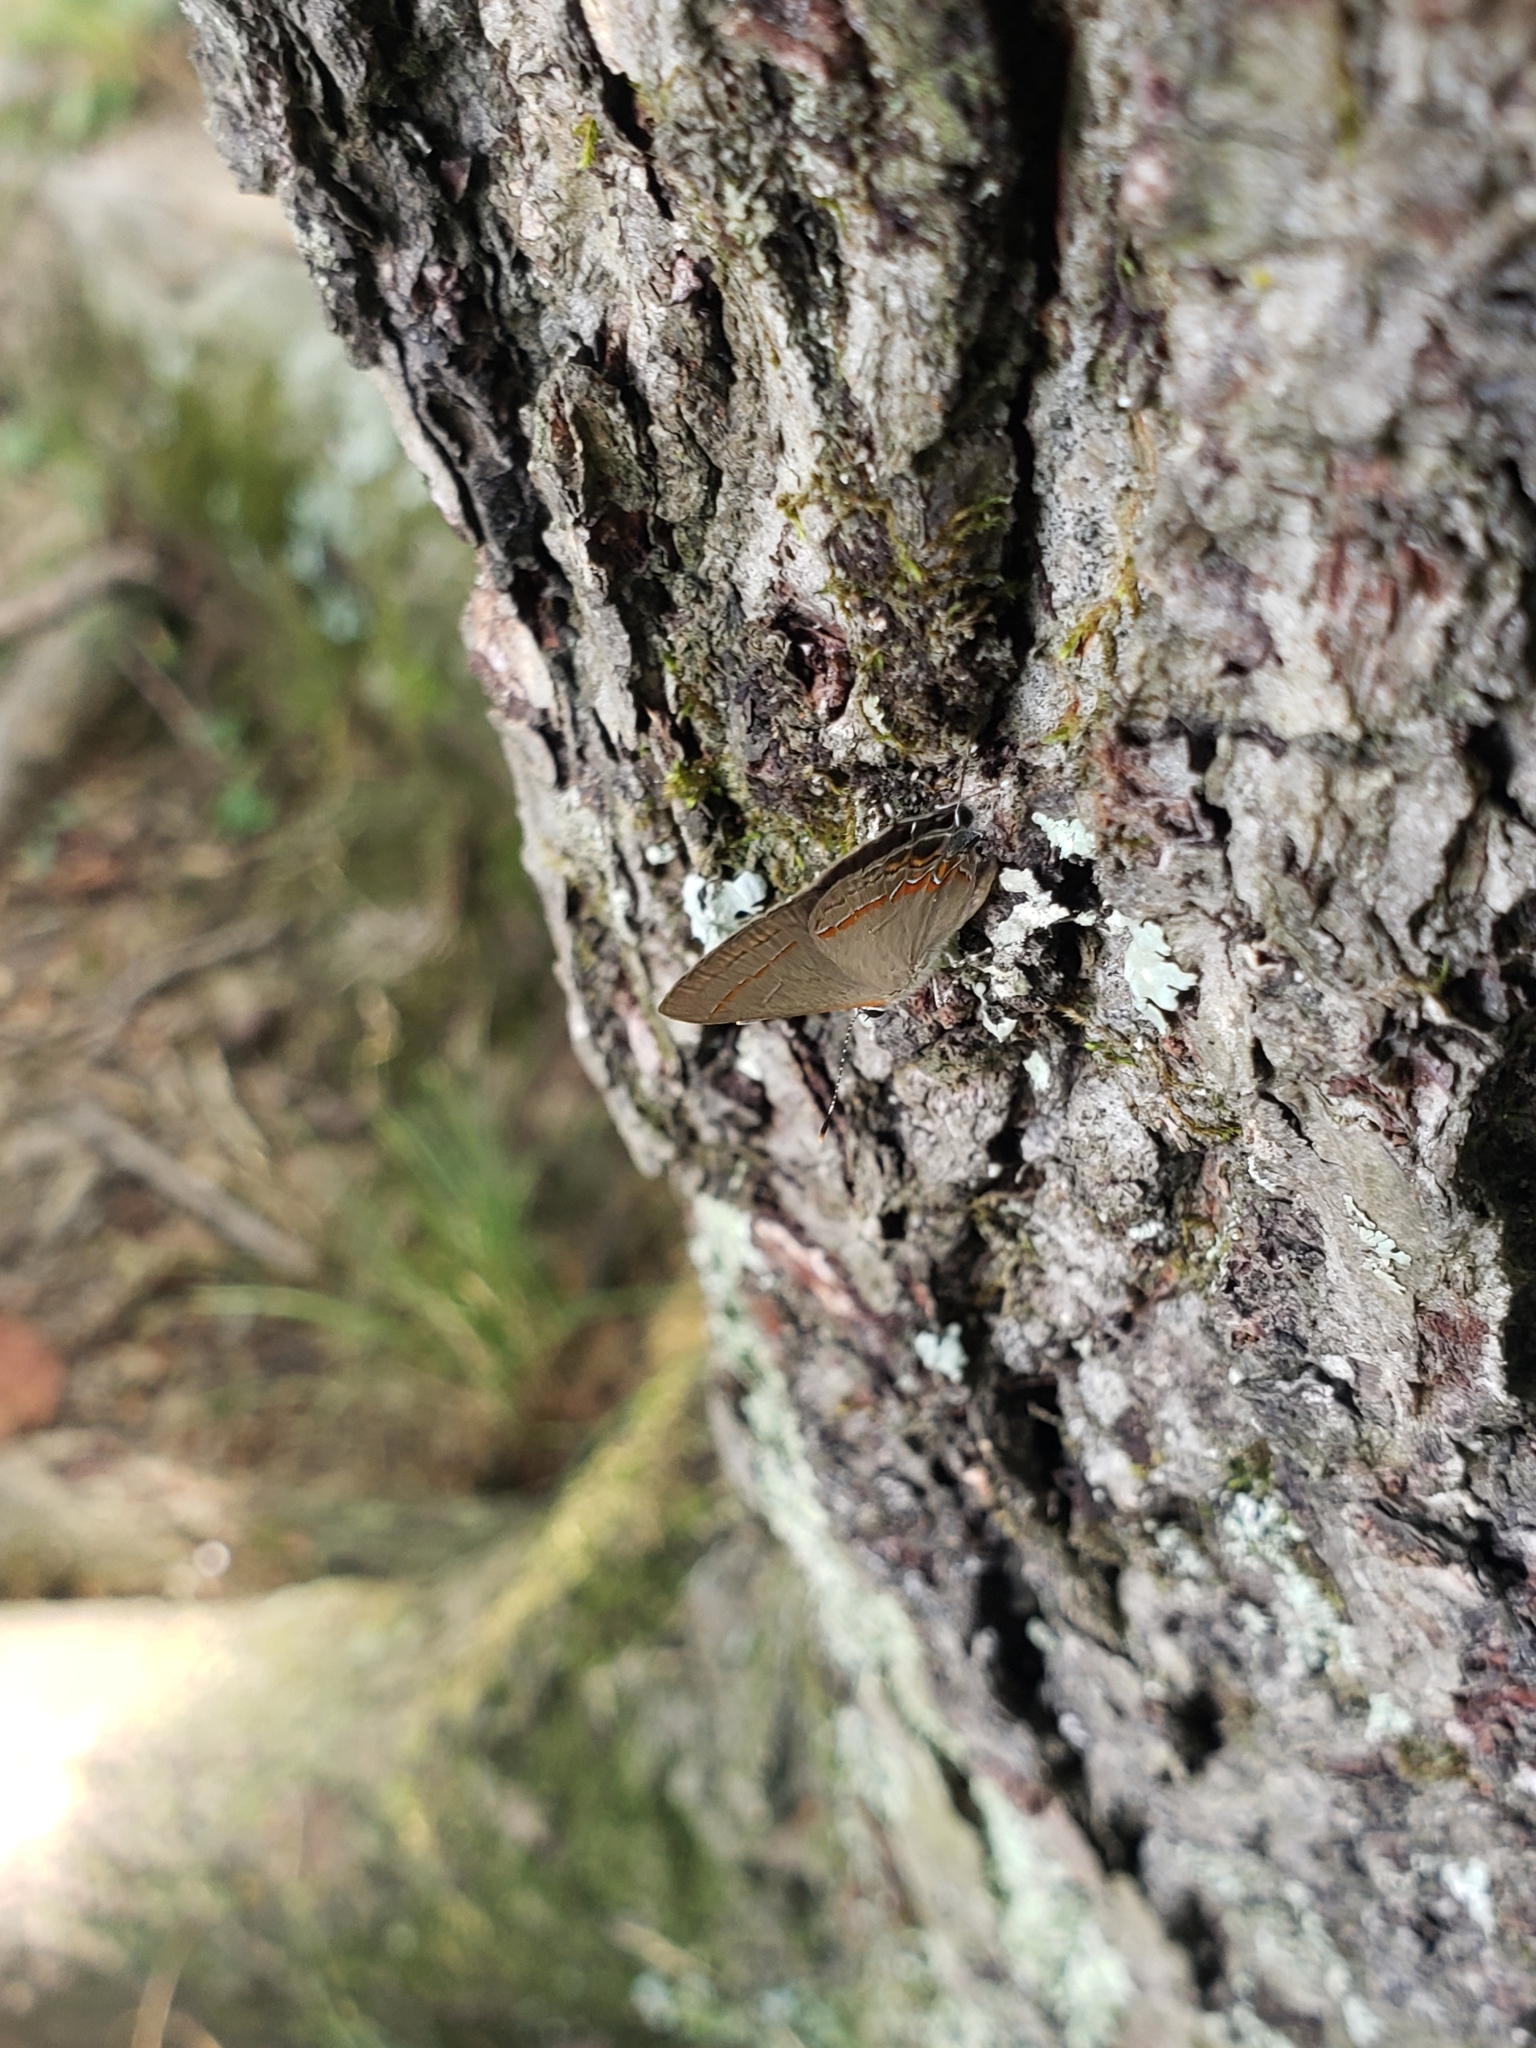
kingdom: Animalia
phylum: Arthropoda
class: Insecta
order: Lepidoptera
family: Lycaenidae
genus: Calycopis
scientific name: Calycopis cecrops
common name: Red-banded hairstreak
